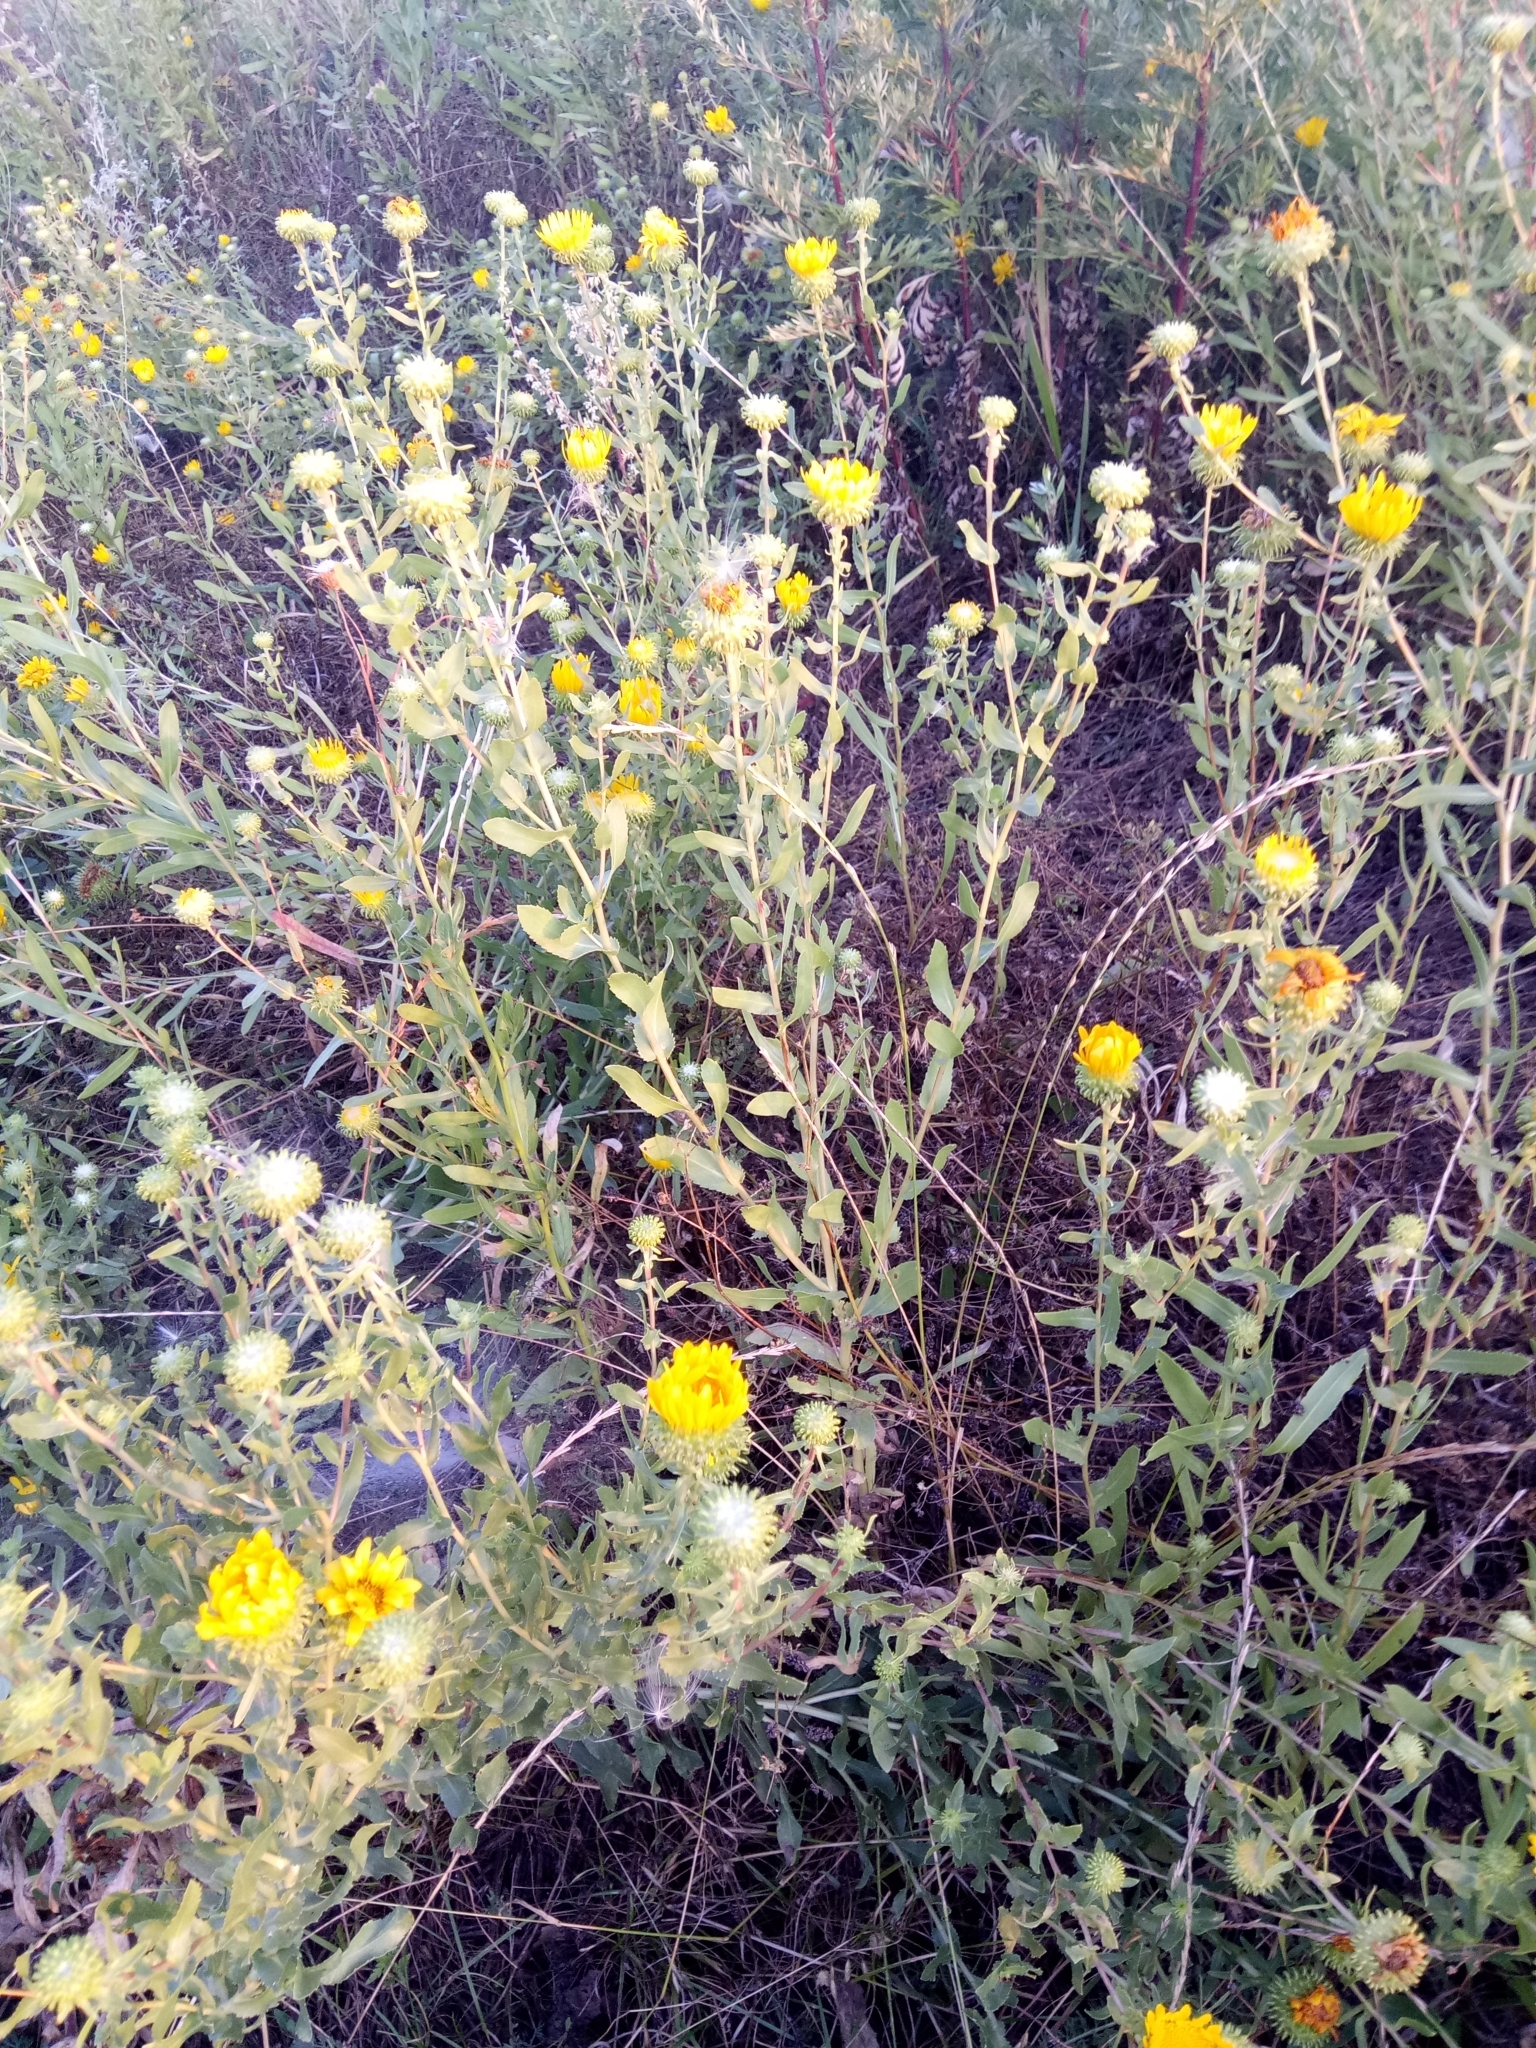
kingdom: Plantae
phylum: Tracheophyta
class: Magnoliopsida
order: Asterales
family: Asteraceae
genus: Grindelia
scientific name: Grindelia squarrosa
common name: Curly-cup gumweed
